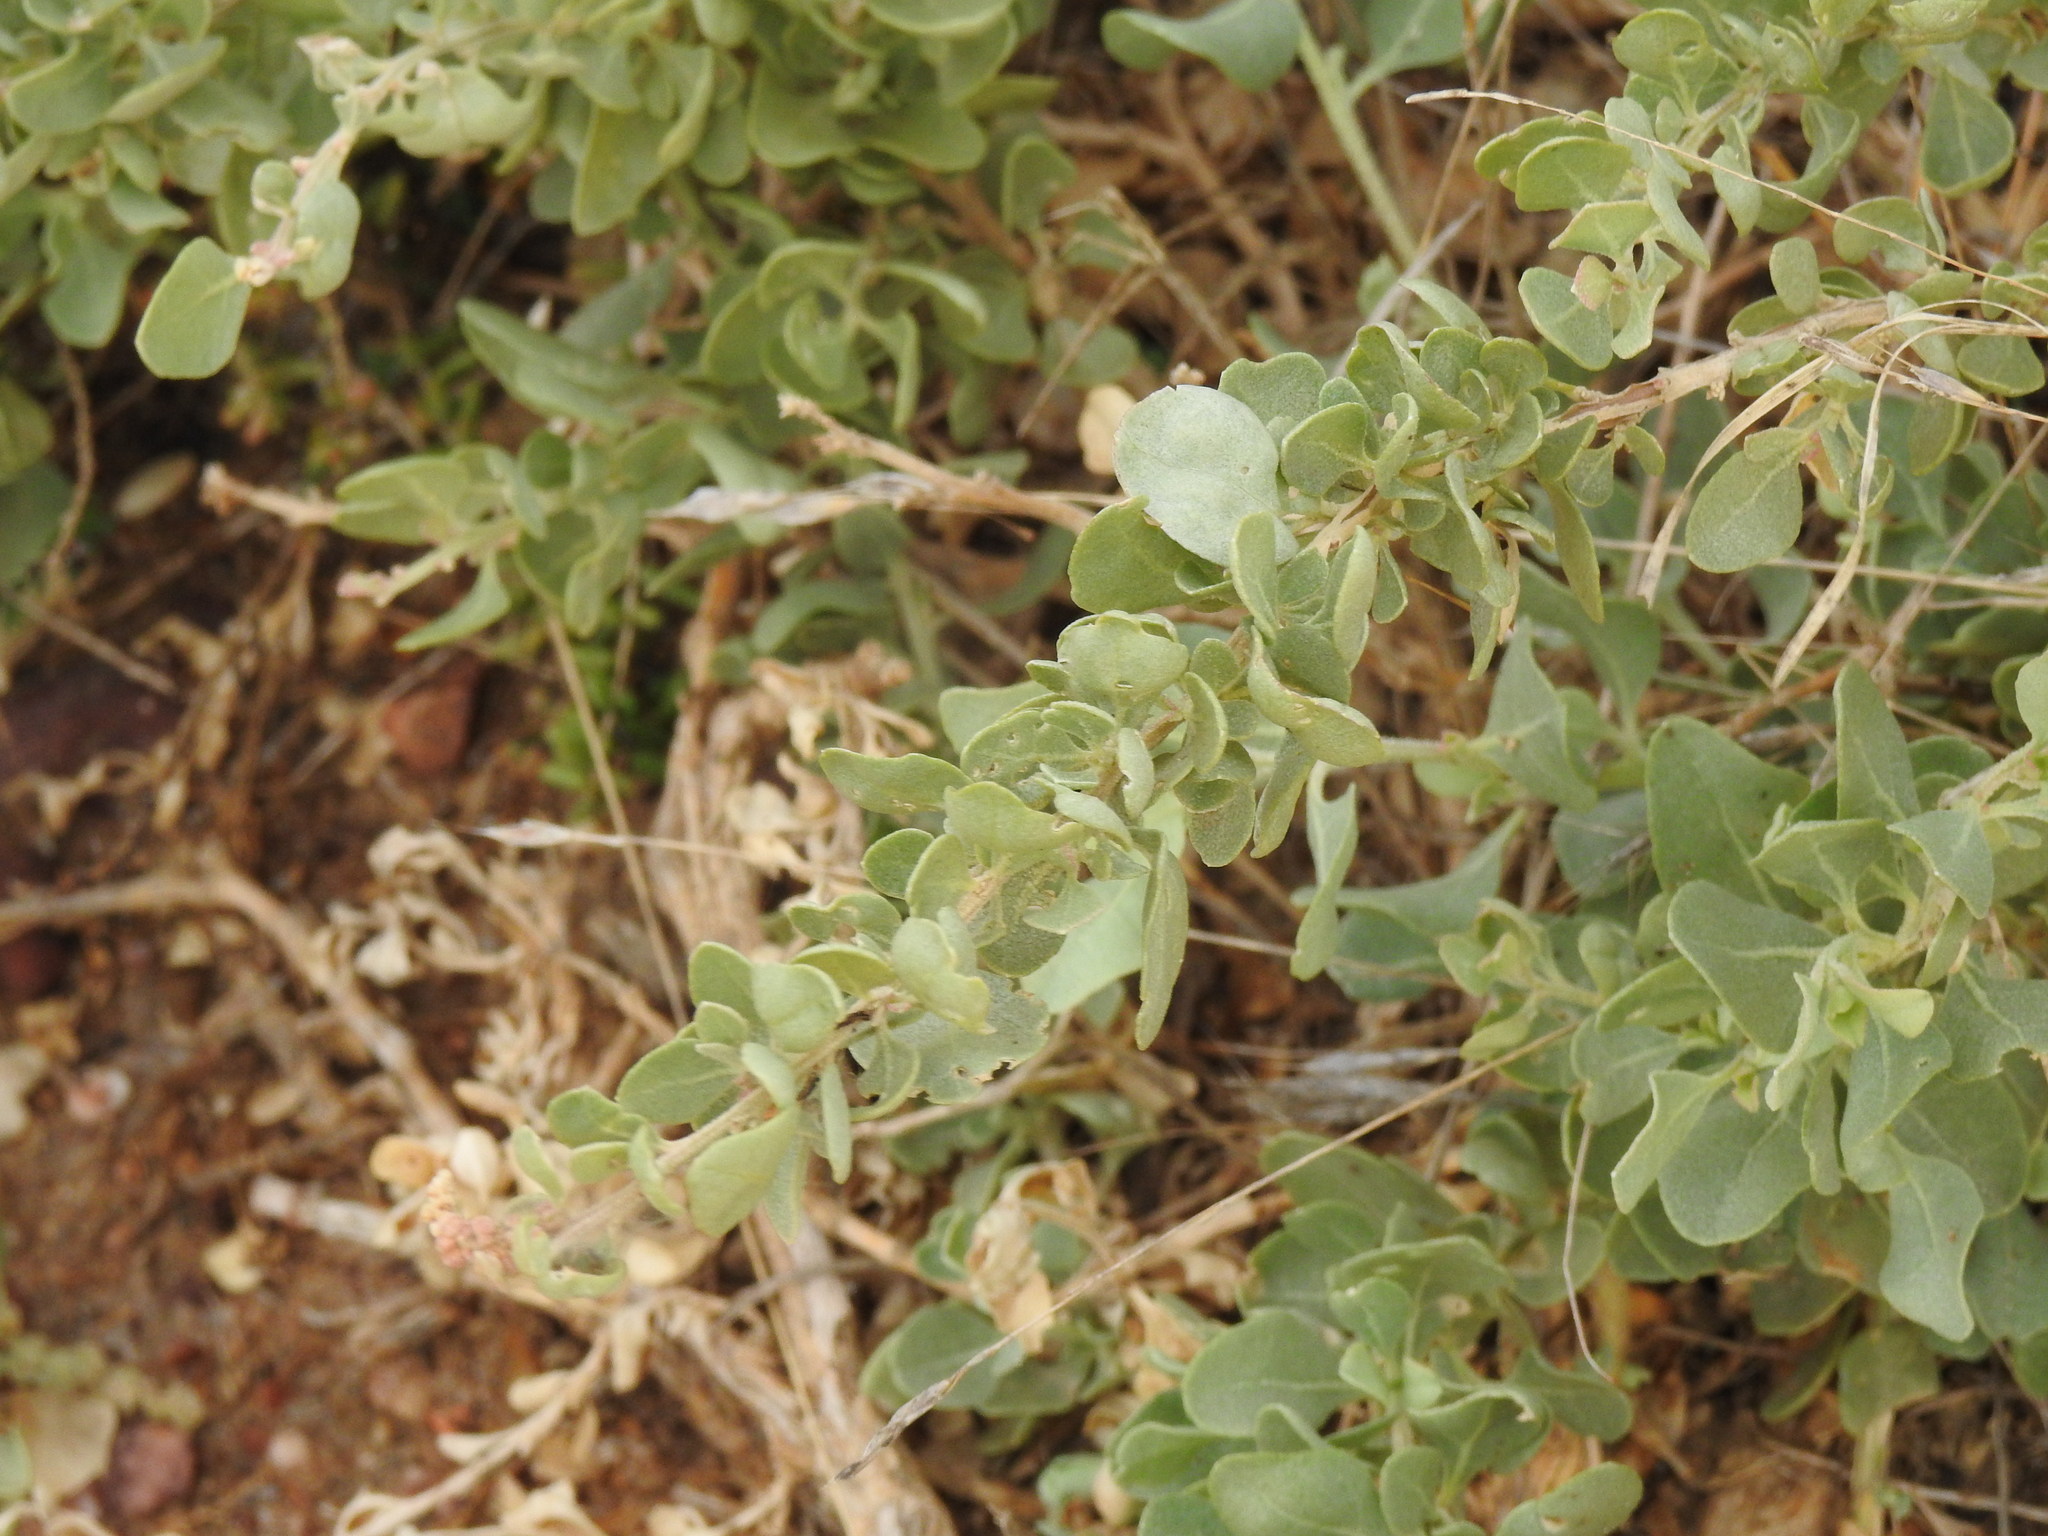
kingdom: Plantae
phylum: Tracheophyta
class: Magnoliopsida
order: Caryophyllales
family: Amaranthaceae
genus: Atriplex
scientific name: Atriplex halimus
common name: Shrubby orache
